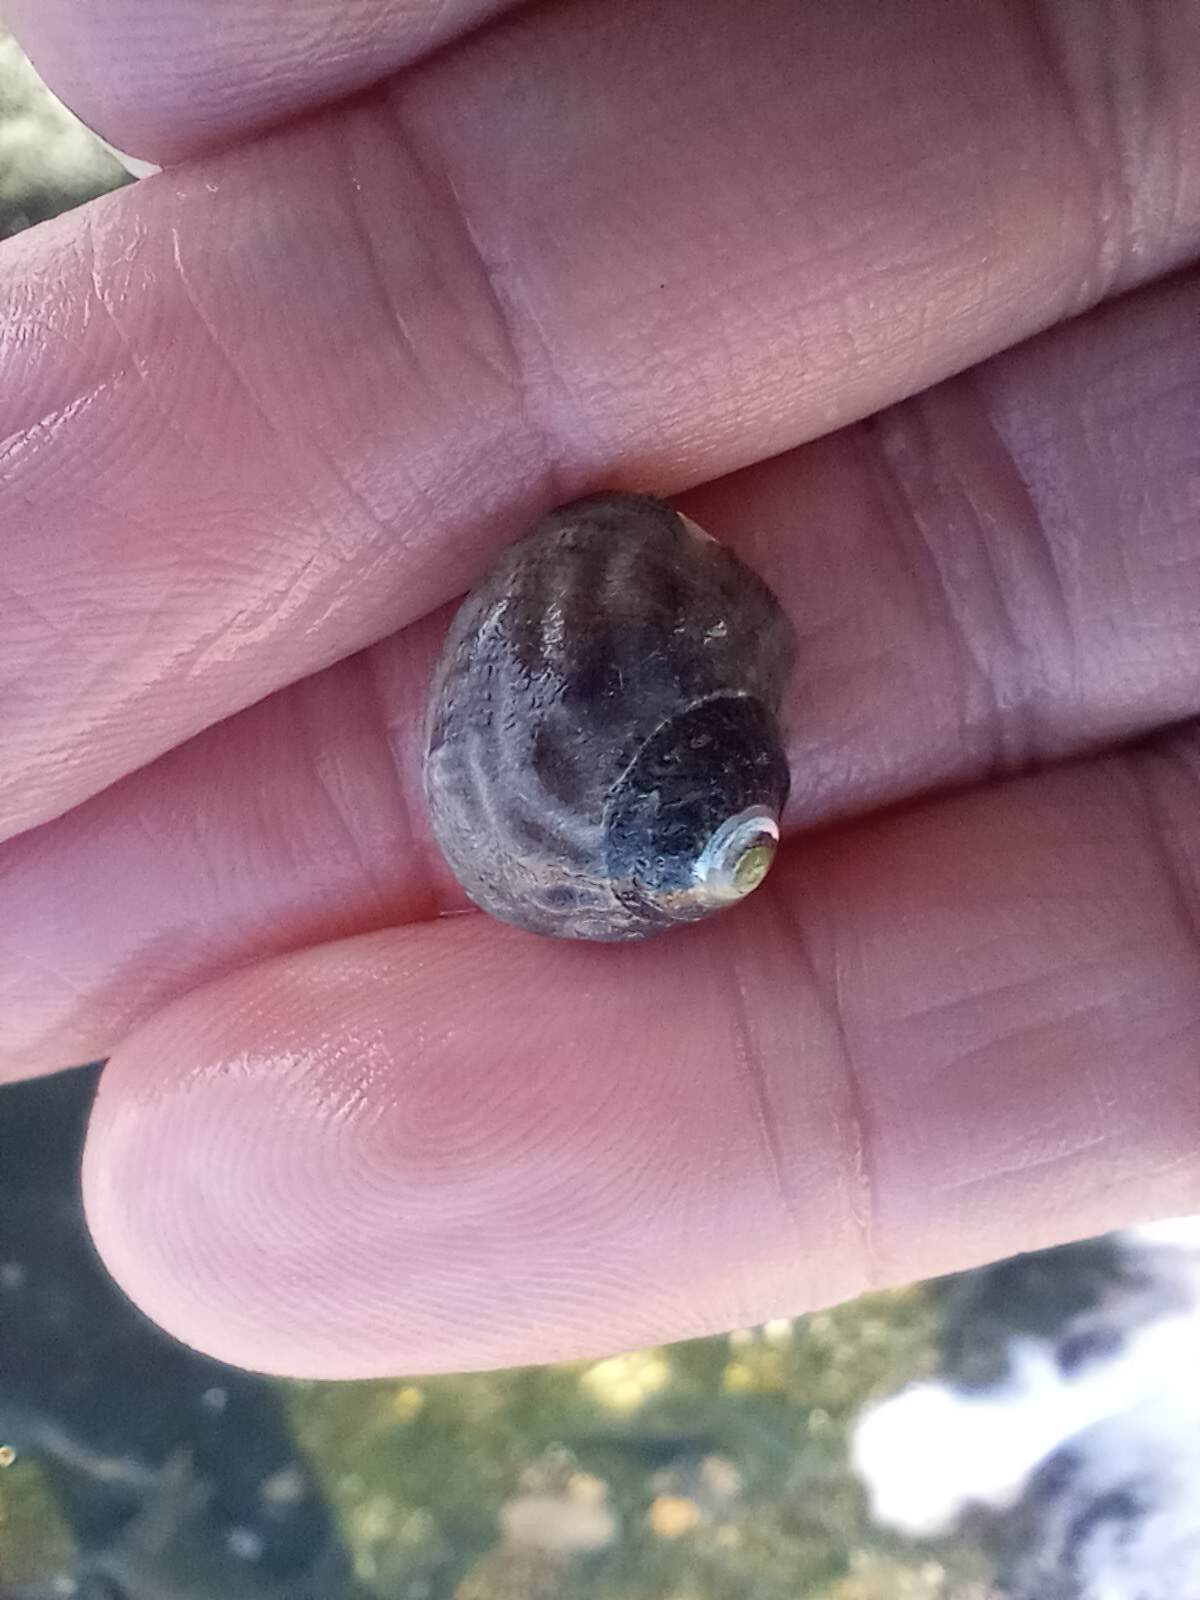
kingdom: Animalia
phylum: Mollusca
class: Gastropoda
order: Trochida
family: Tegulidae
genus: Tegula
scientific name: Tegula aureotincta
